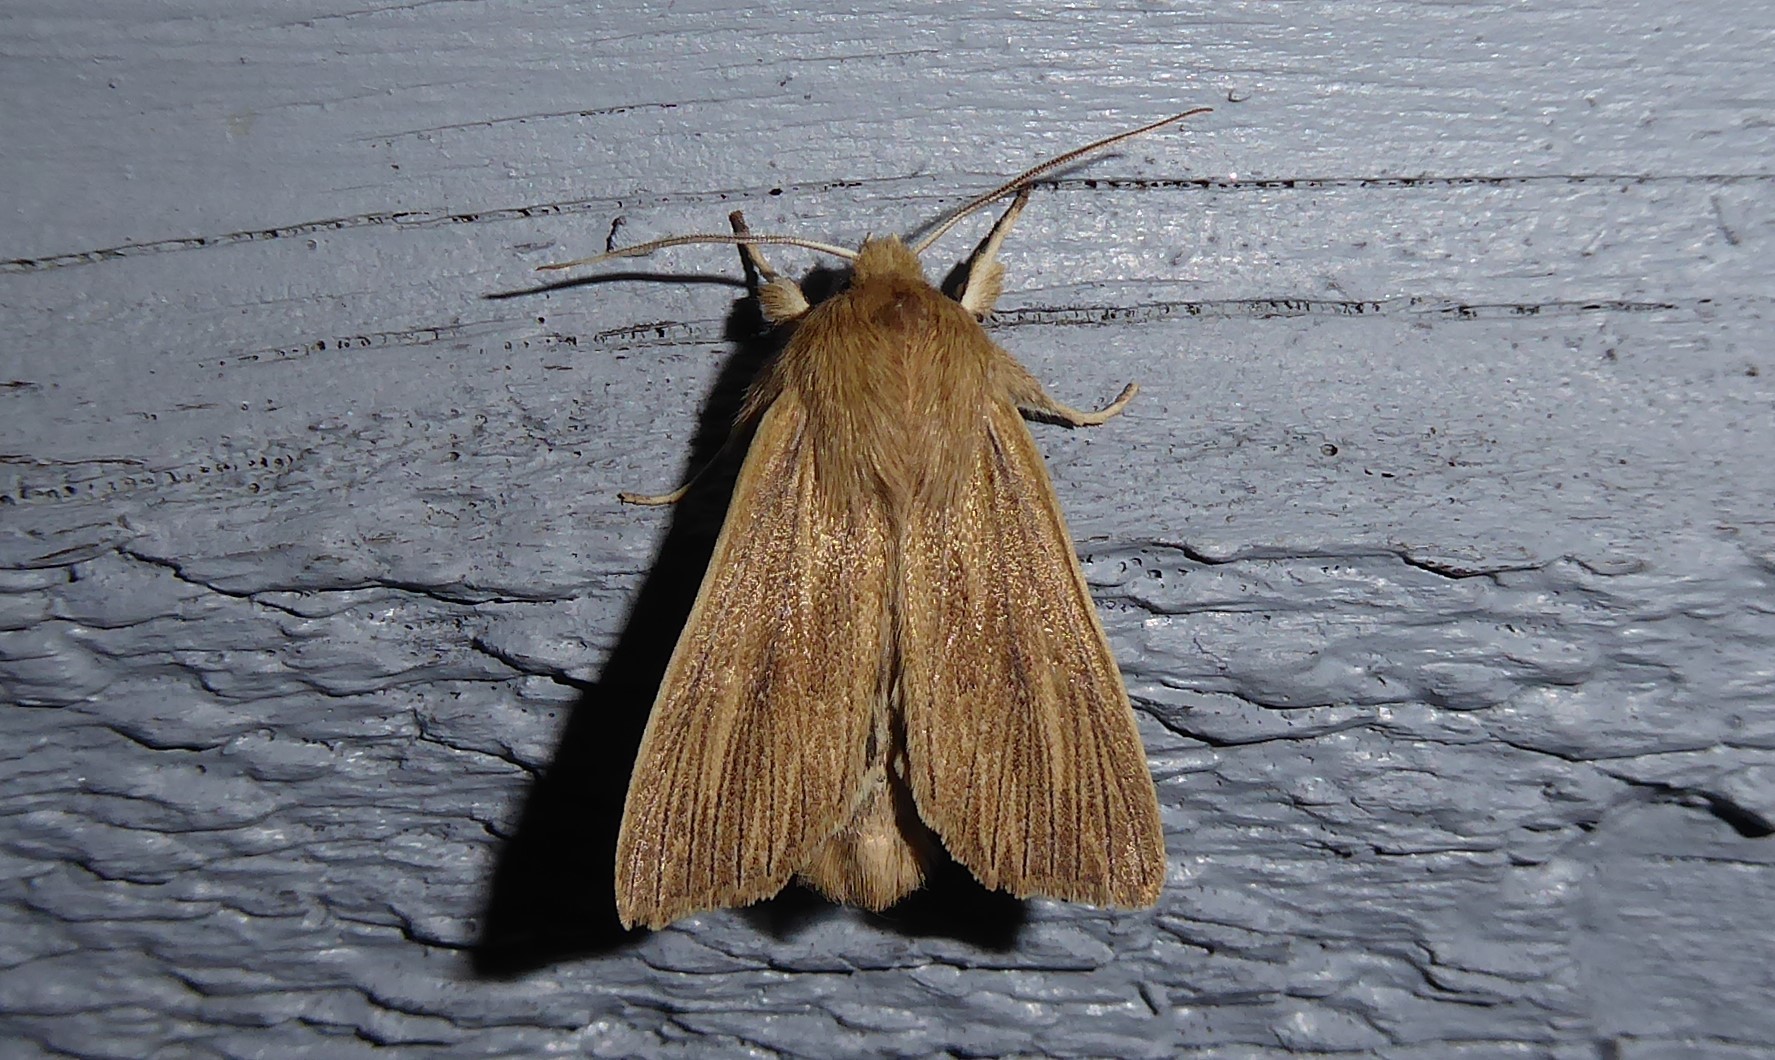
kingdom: Animalia
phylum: Arthropoda
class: Insecta
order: Lepidoptera
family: Noctuidae
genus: Ichneutica
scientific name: Ichneutica arotis
